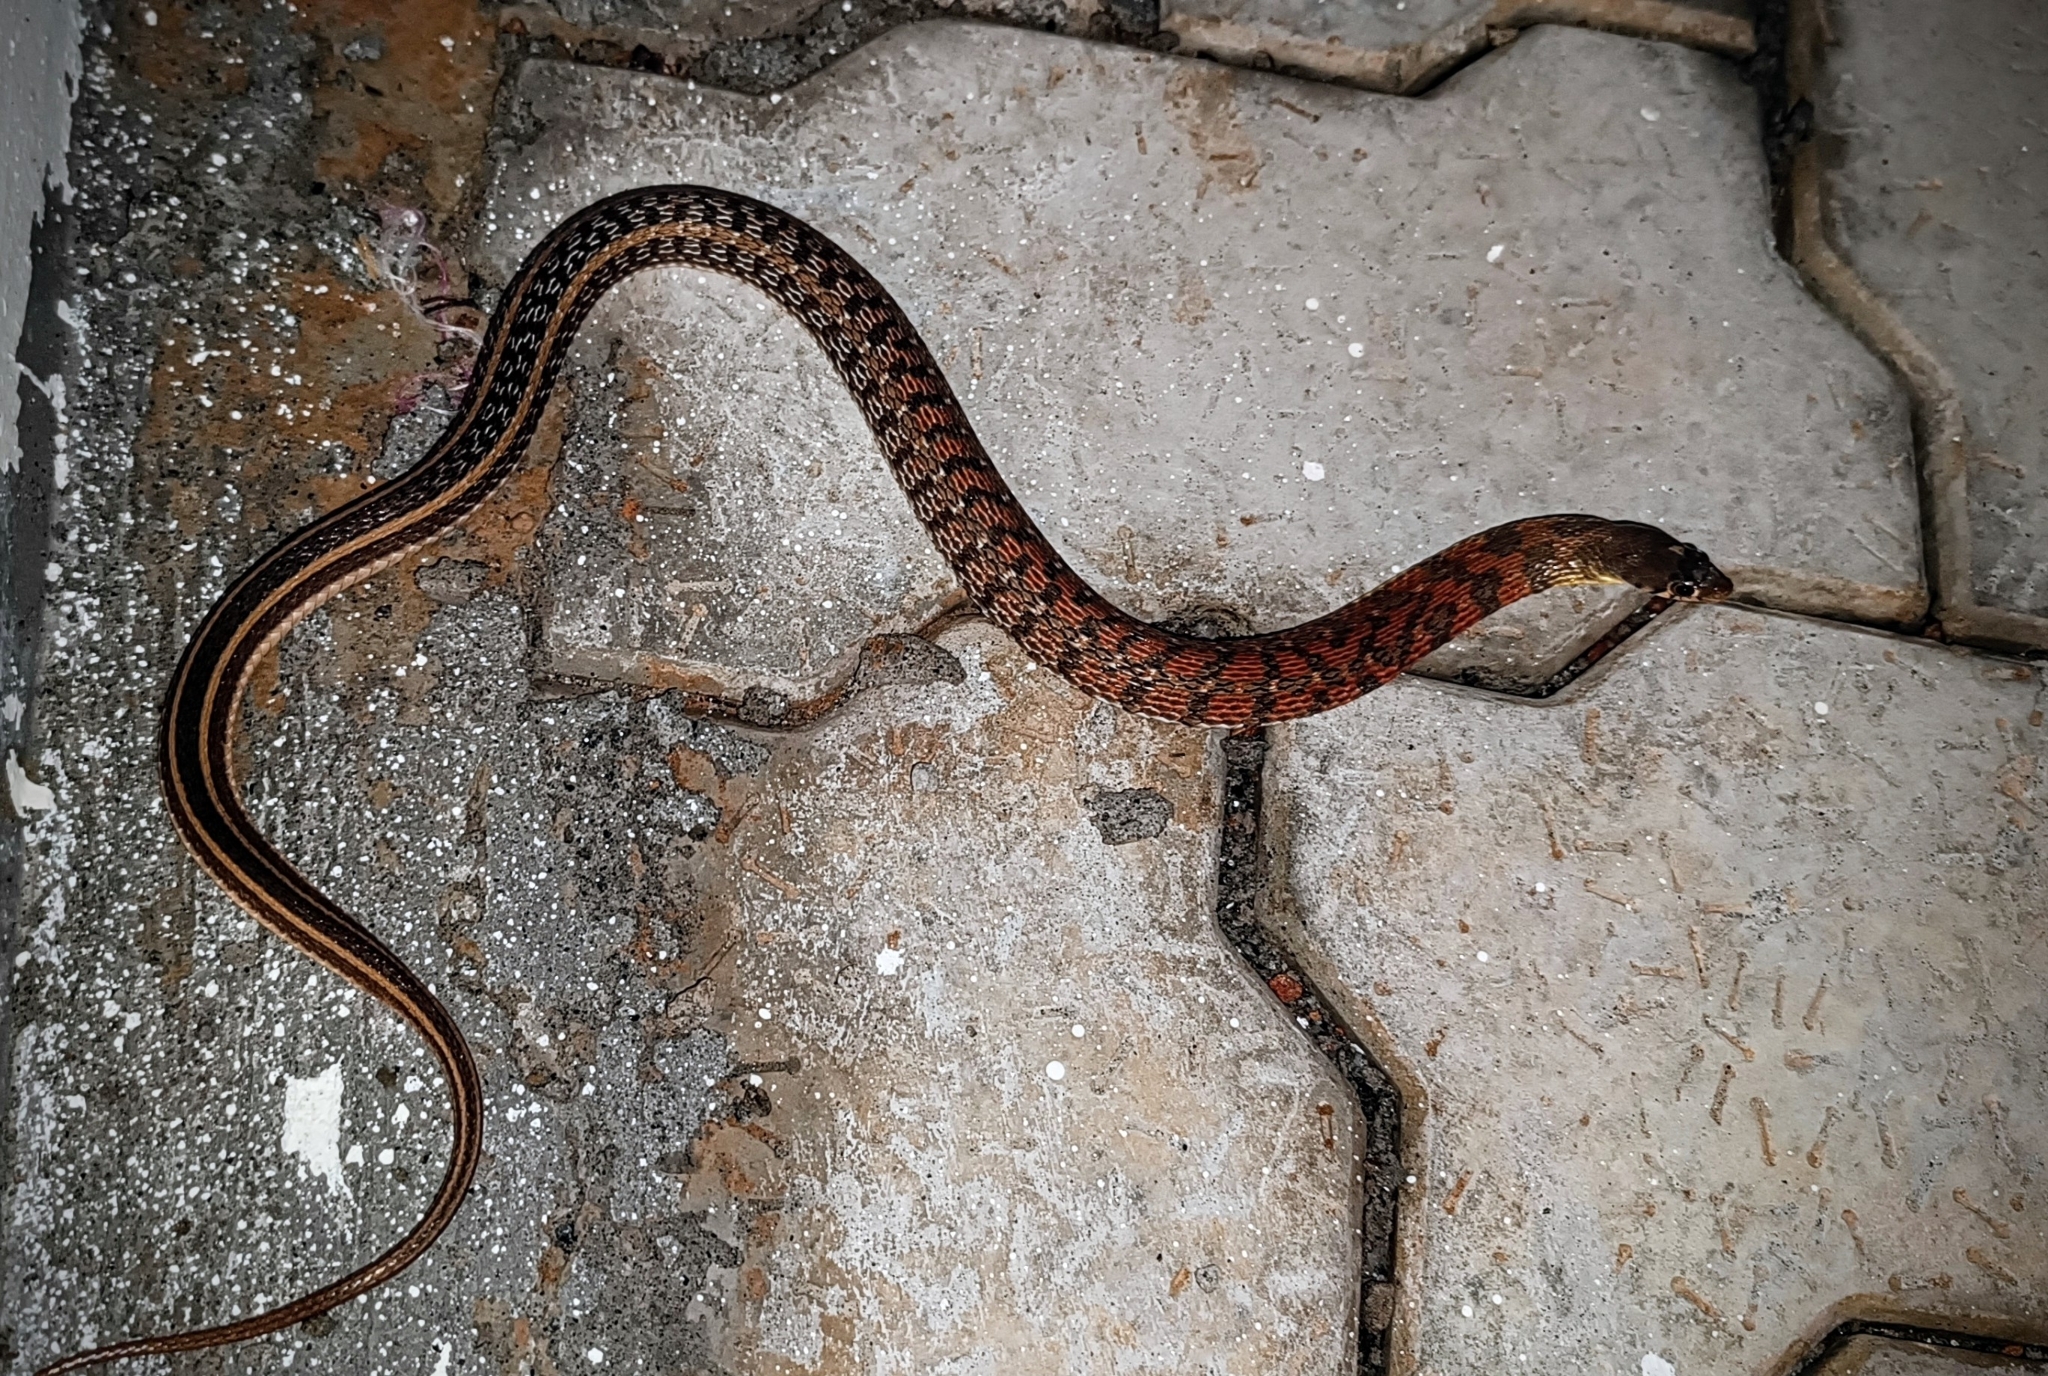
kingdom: Animalia
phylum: Chordata
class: Squamata
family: Colubridae
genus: Amphiesma
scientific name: Amphiesma stolatum
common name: Buff striped keelback
